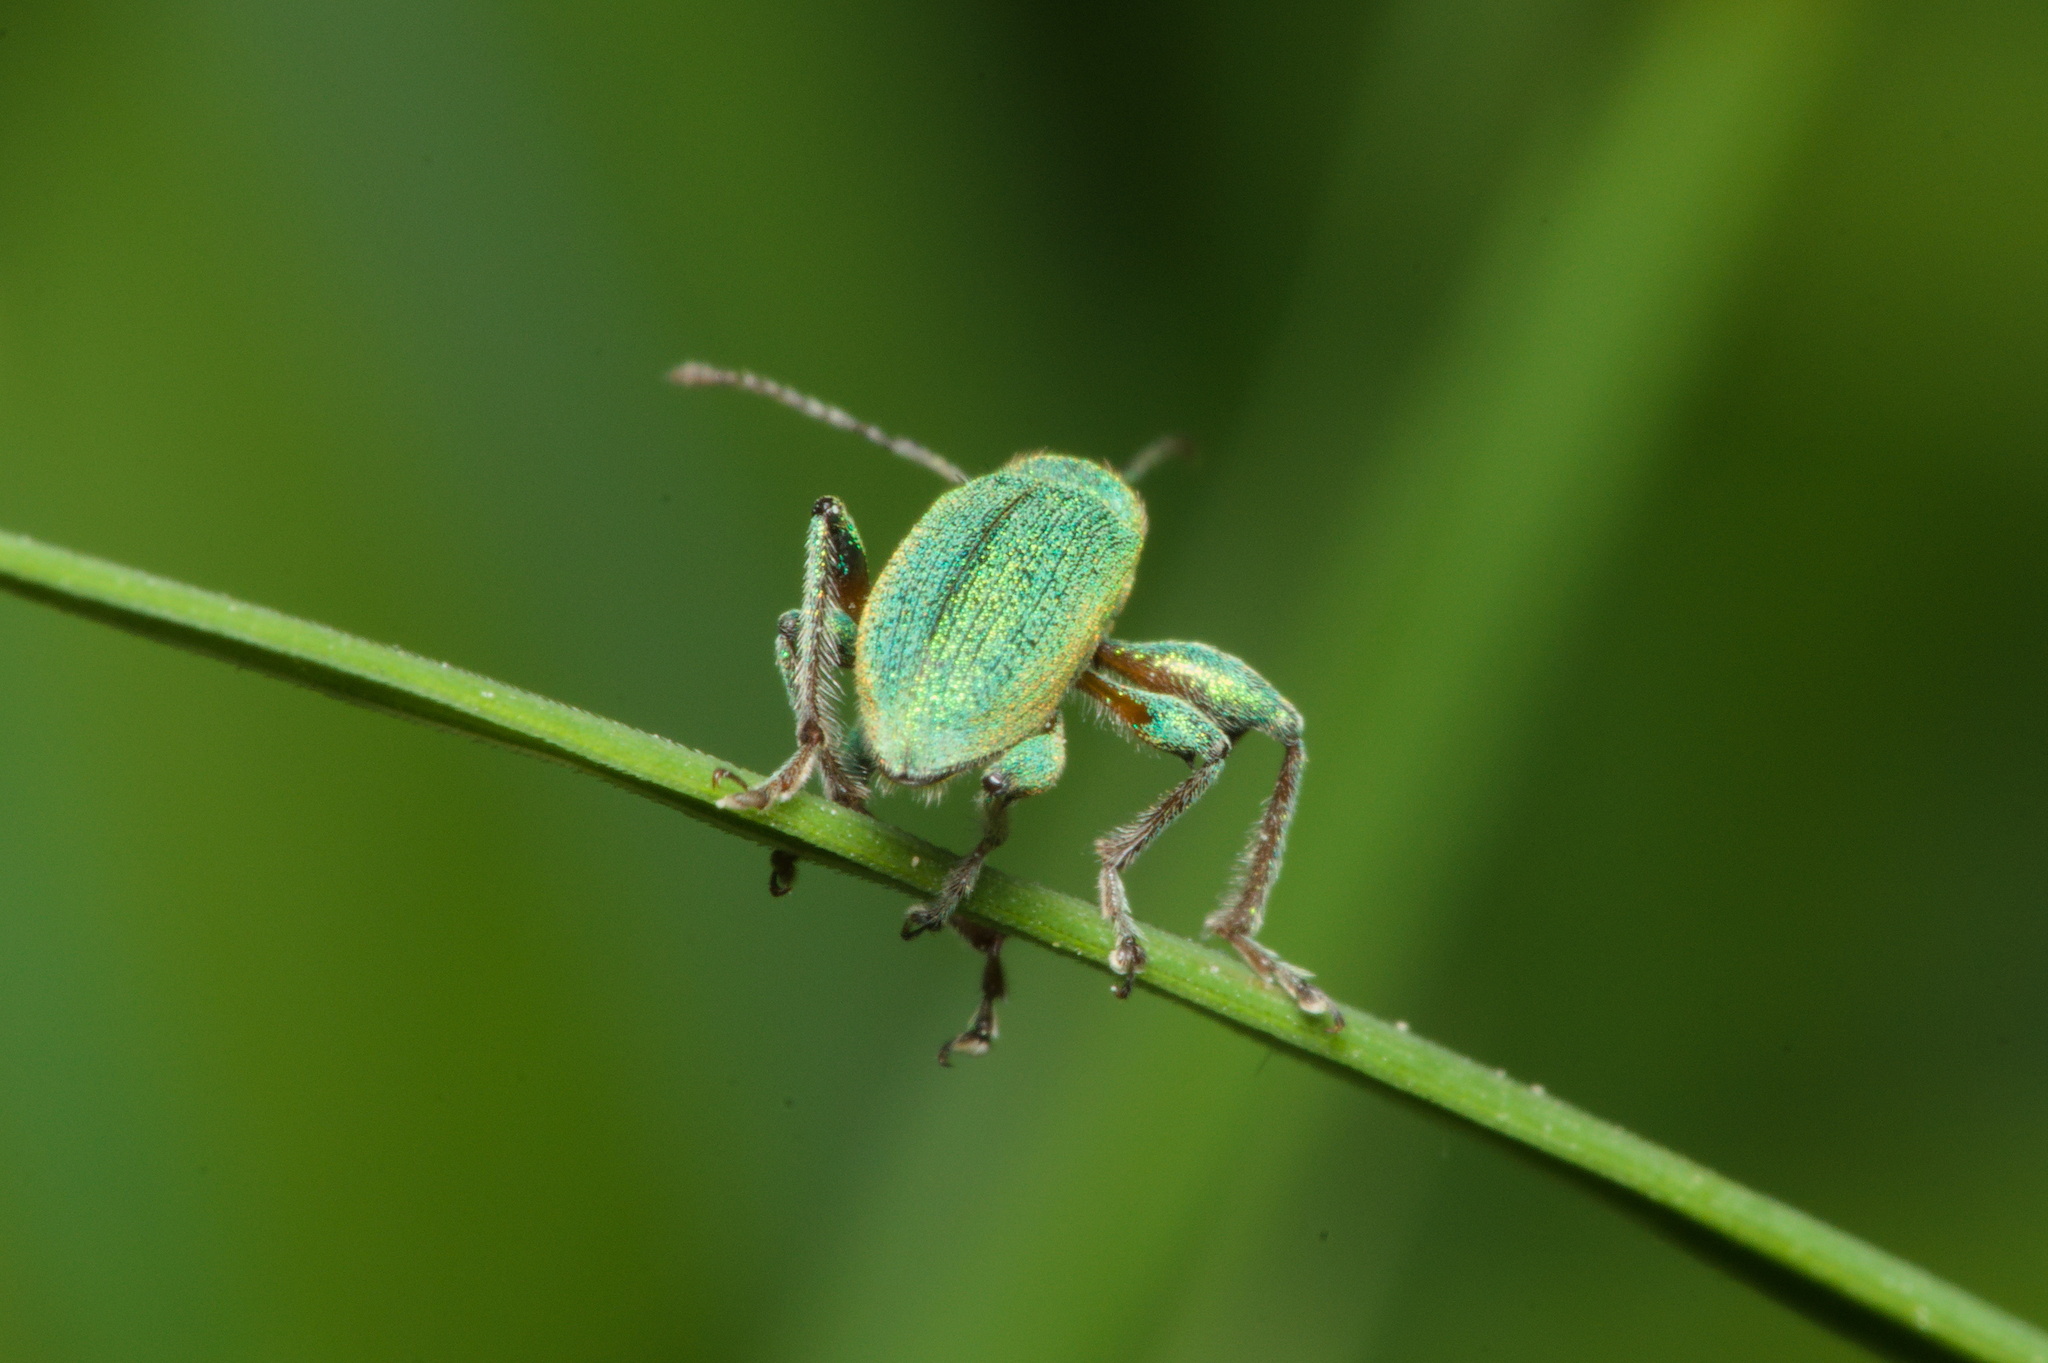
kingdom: Animalia
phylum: Arthropoda
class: Insecta
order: Coleoptera
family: Curculionidae
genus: Phyllobius
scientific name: Phyllobius arborator
